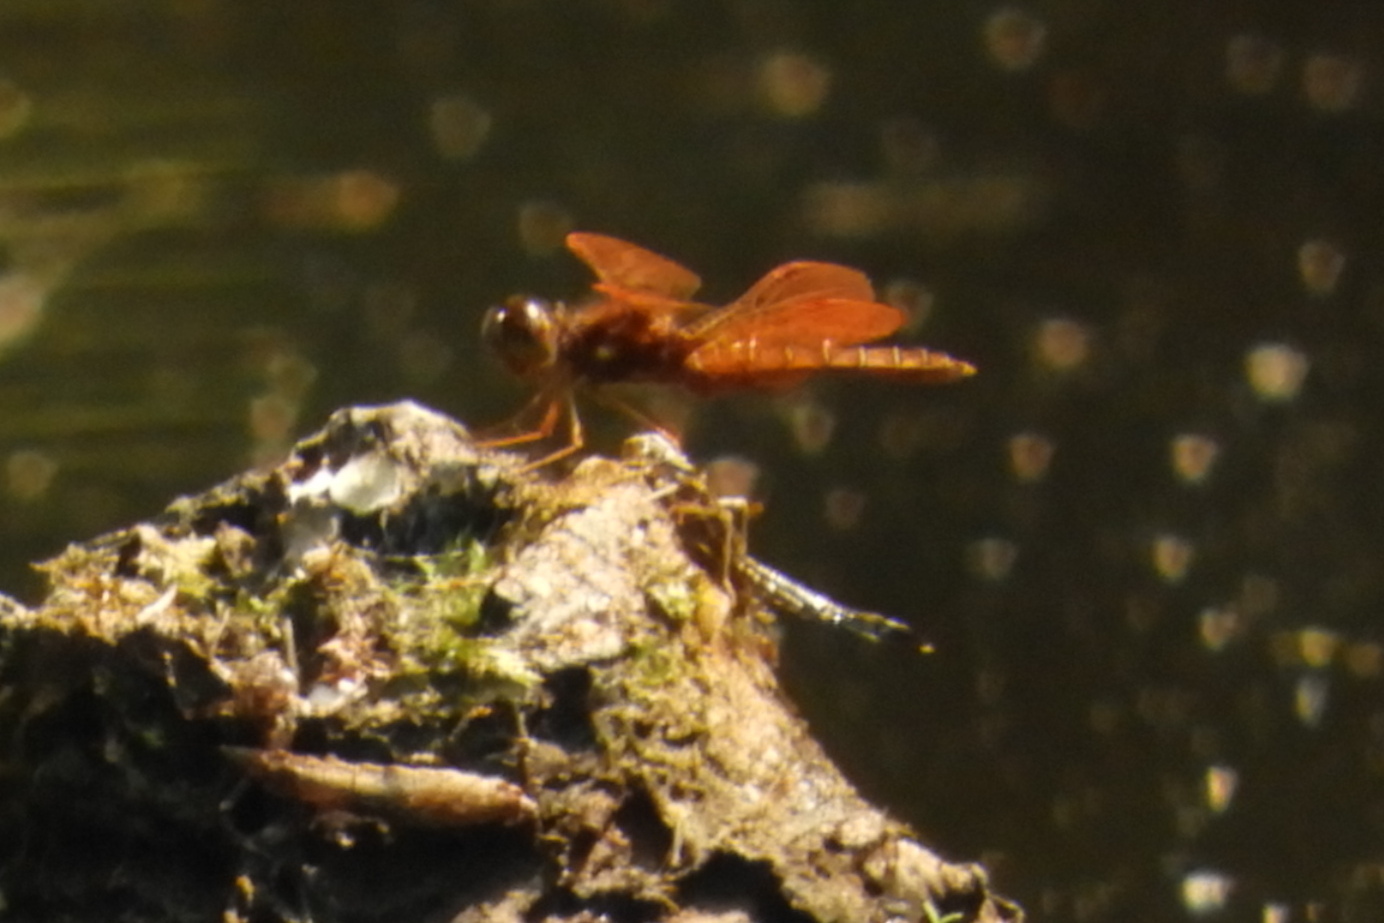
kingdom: Animalia
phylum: Arthropoda
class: Insecta
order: Odonata
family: Libellulidae
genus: Perithemis
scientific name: Perithemis tenera
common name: Eastern amberwing
